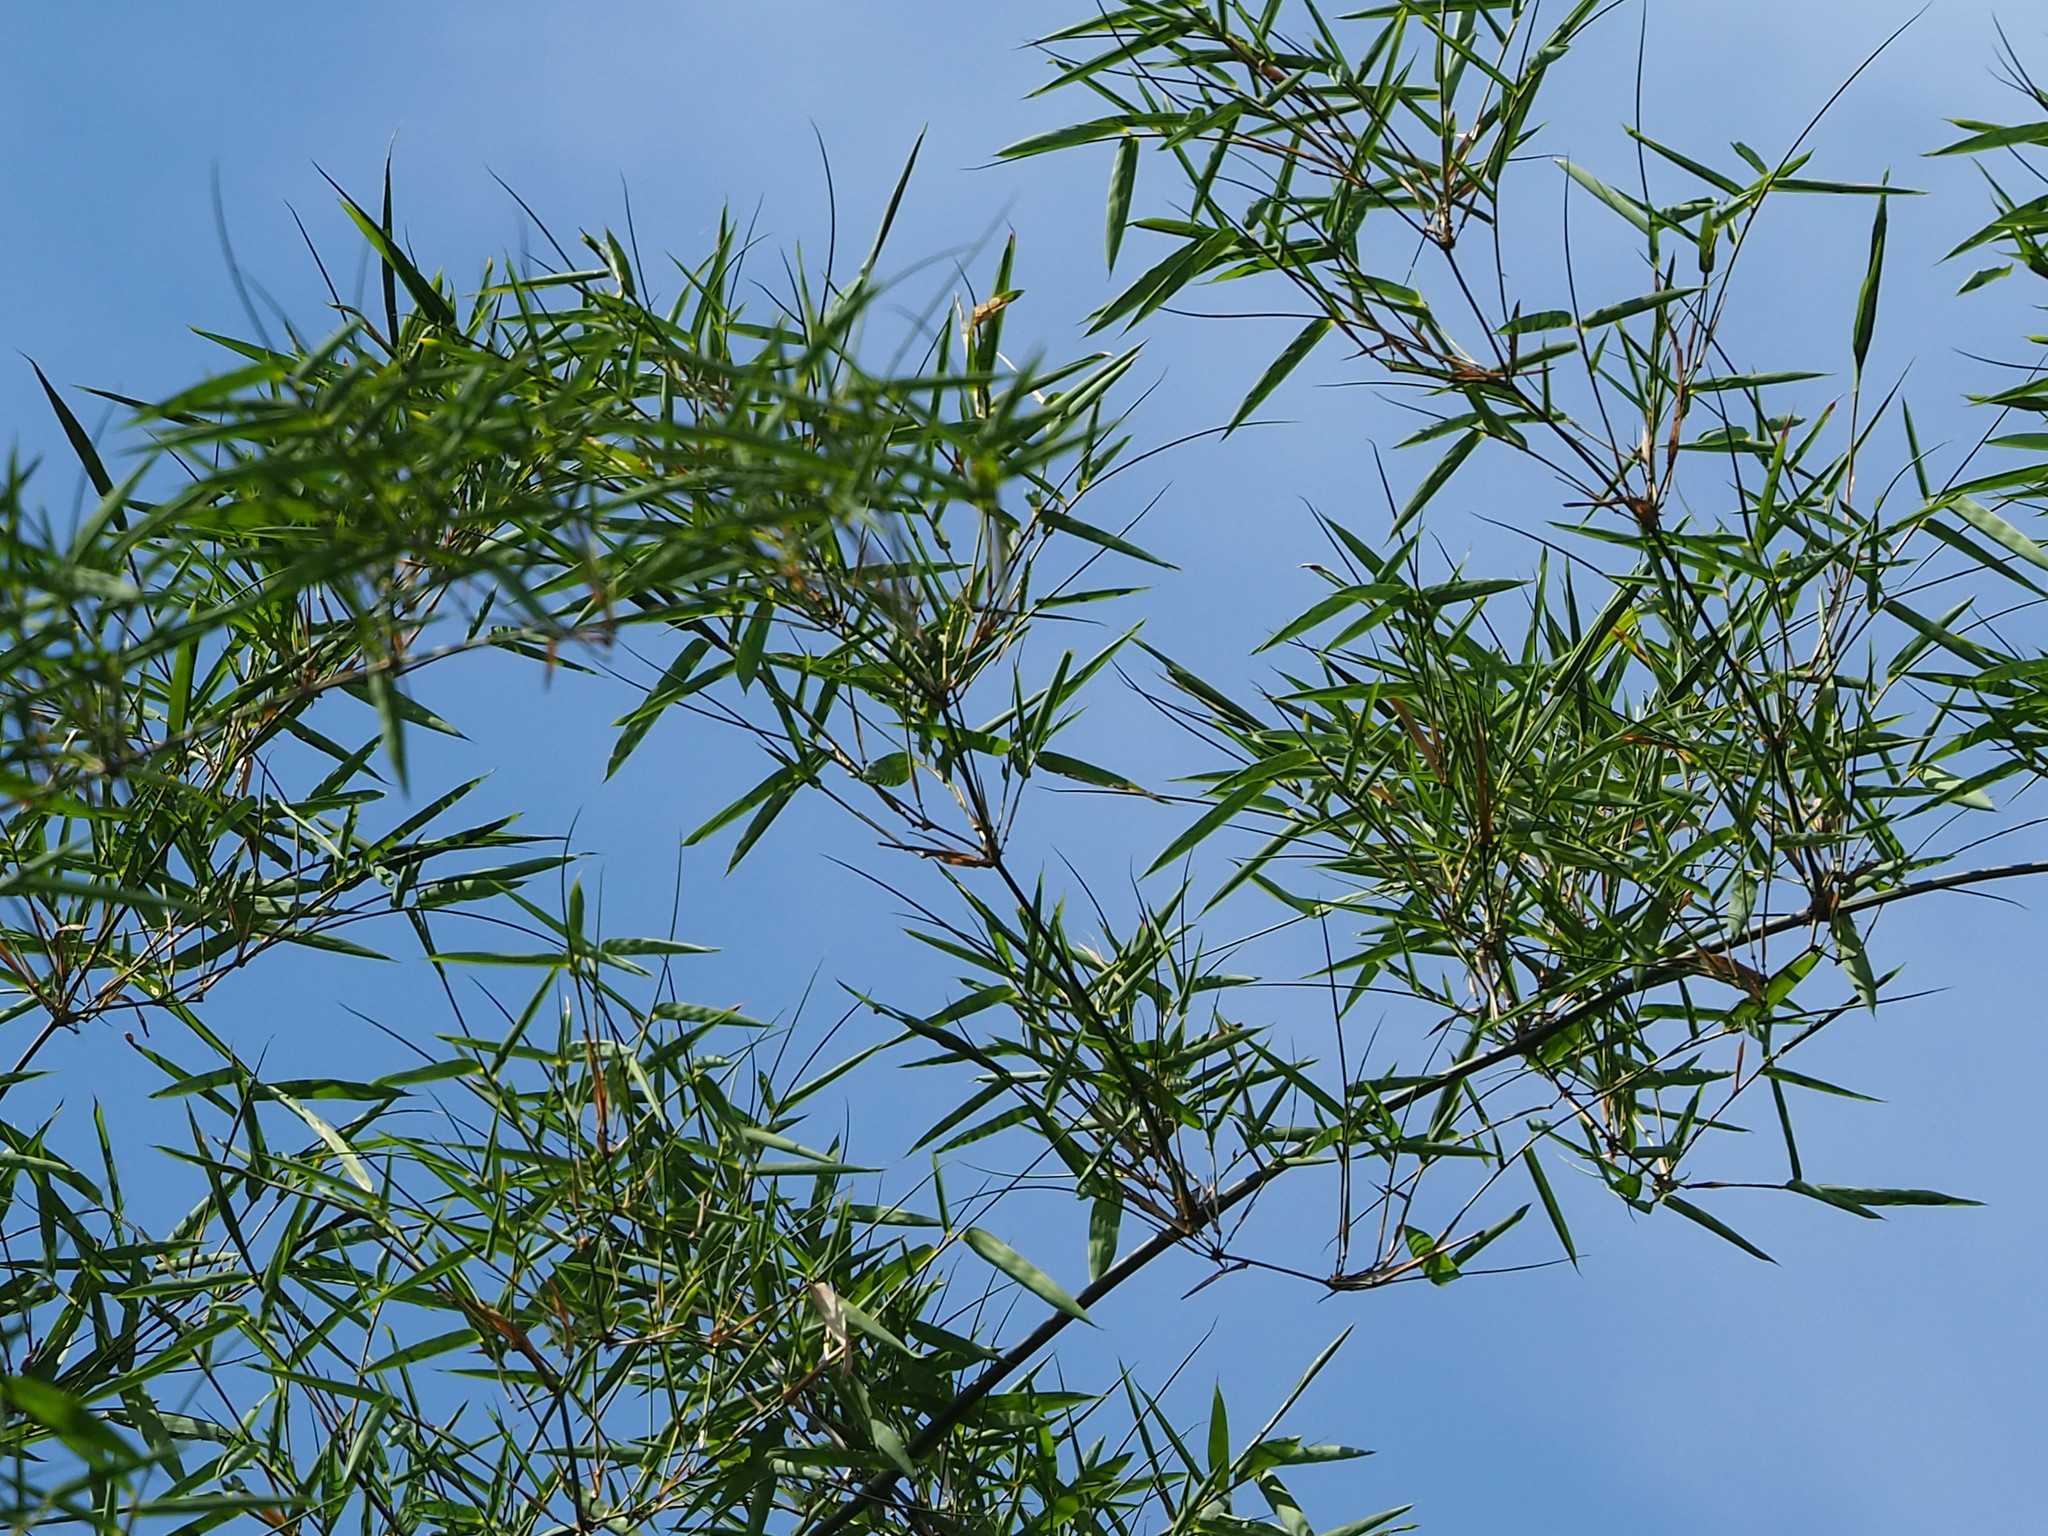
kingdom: Plantae
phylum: Tracheophyta
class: Liliopsida
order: Poales
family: Poaceae
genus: Bambusa
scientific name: Bambusa spinosa
